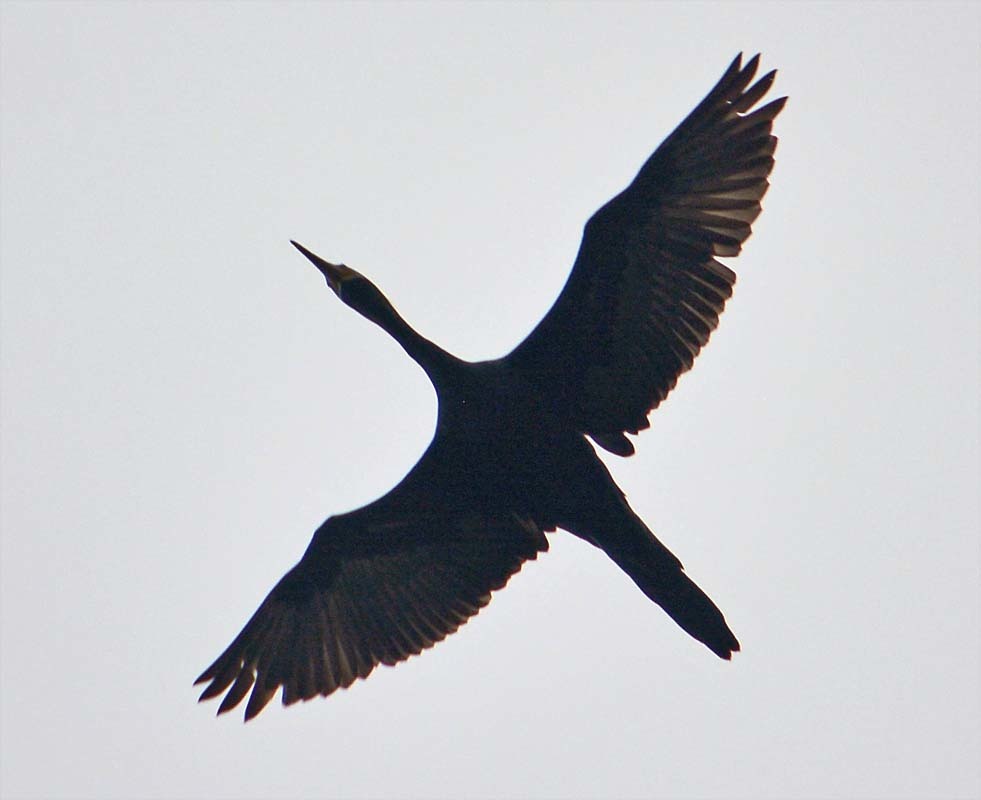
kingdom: Animalia
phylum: Chordata
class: Aves
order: Suliformes
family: Anhingidae
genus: Anhinga
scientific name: Anhinga anhinga
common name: Anhinga
